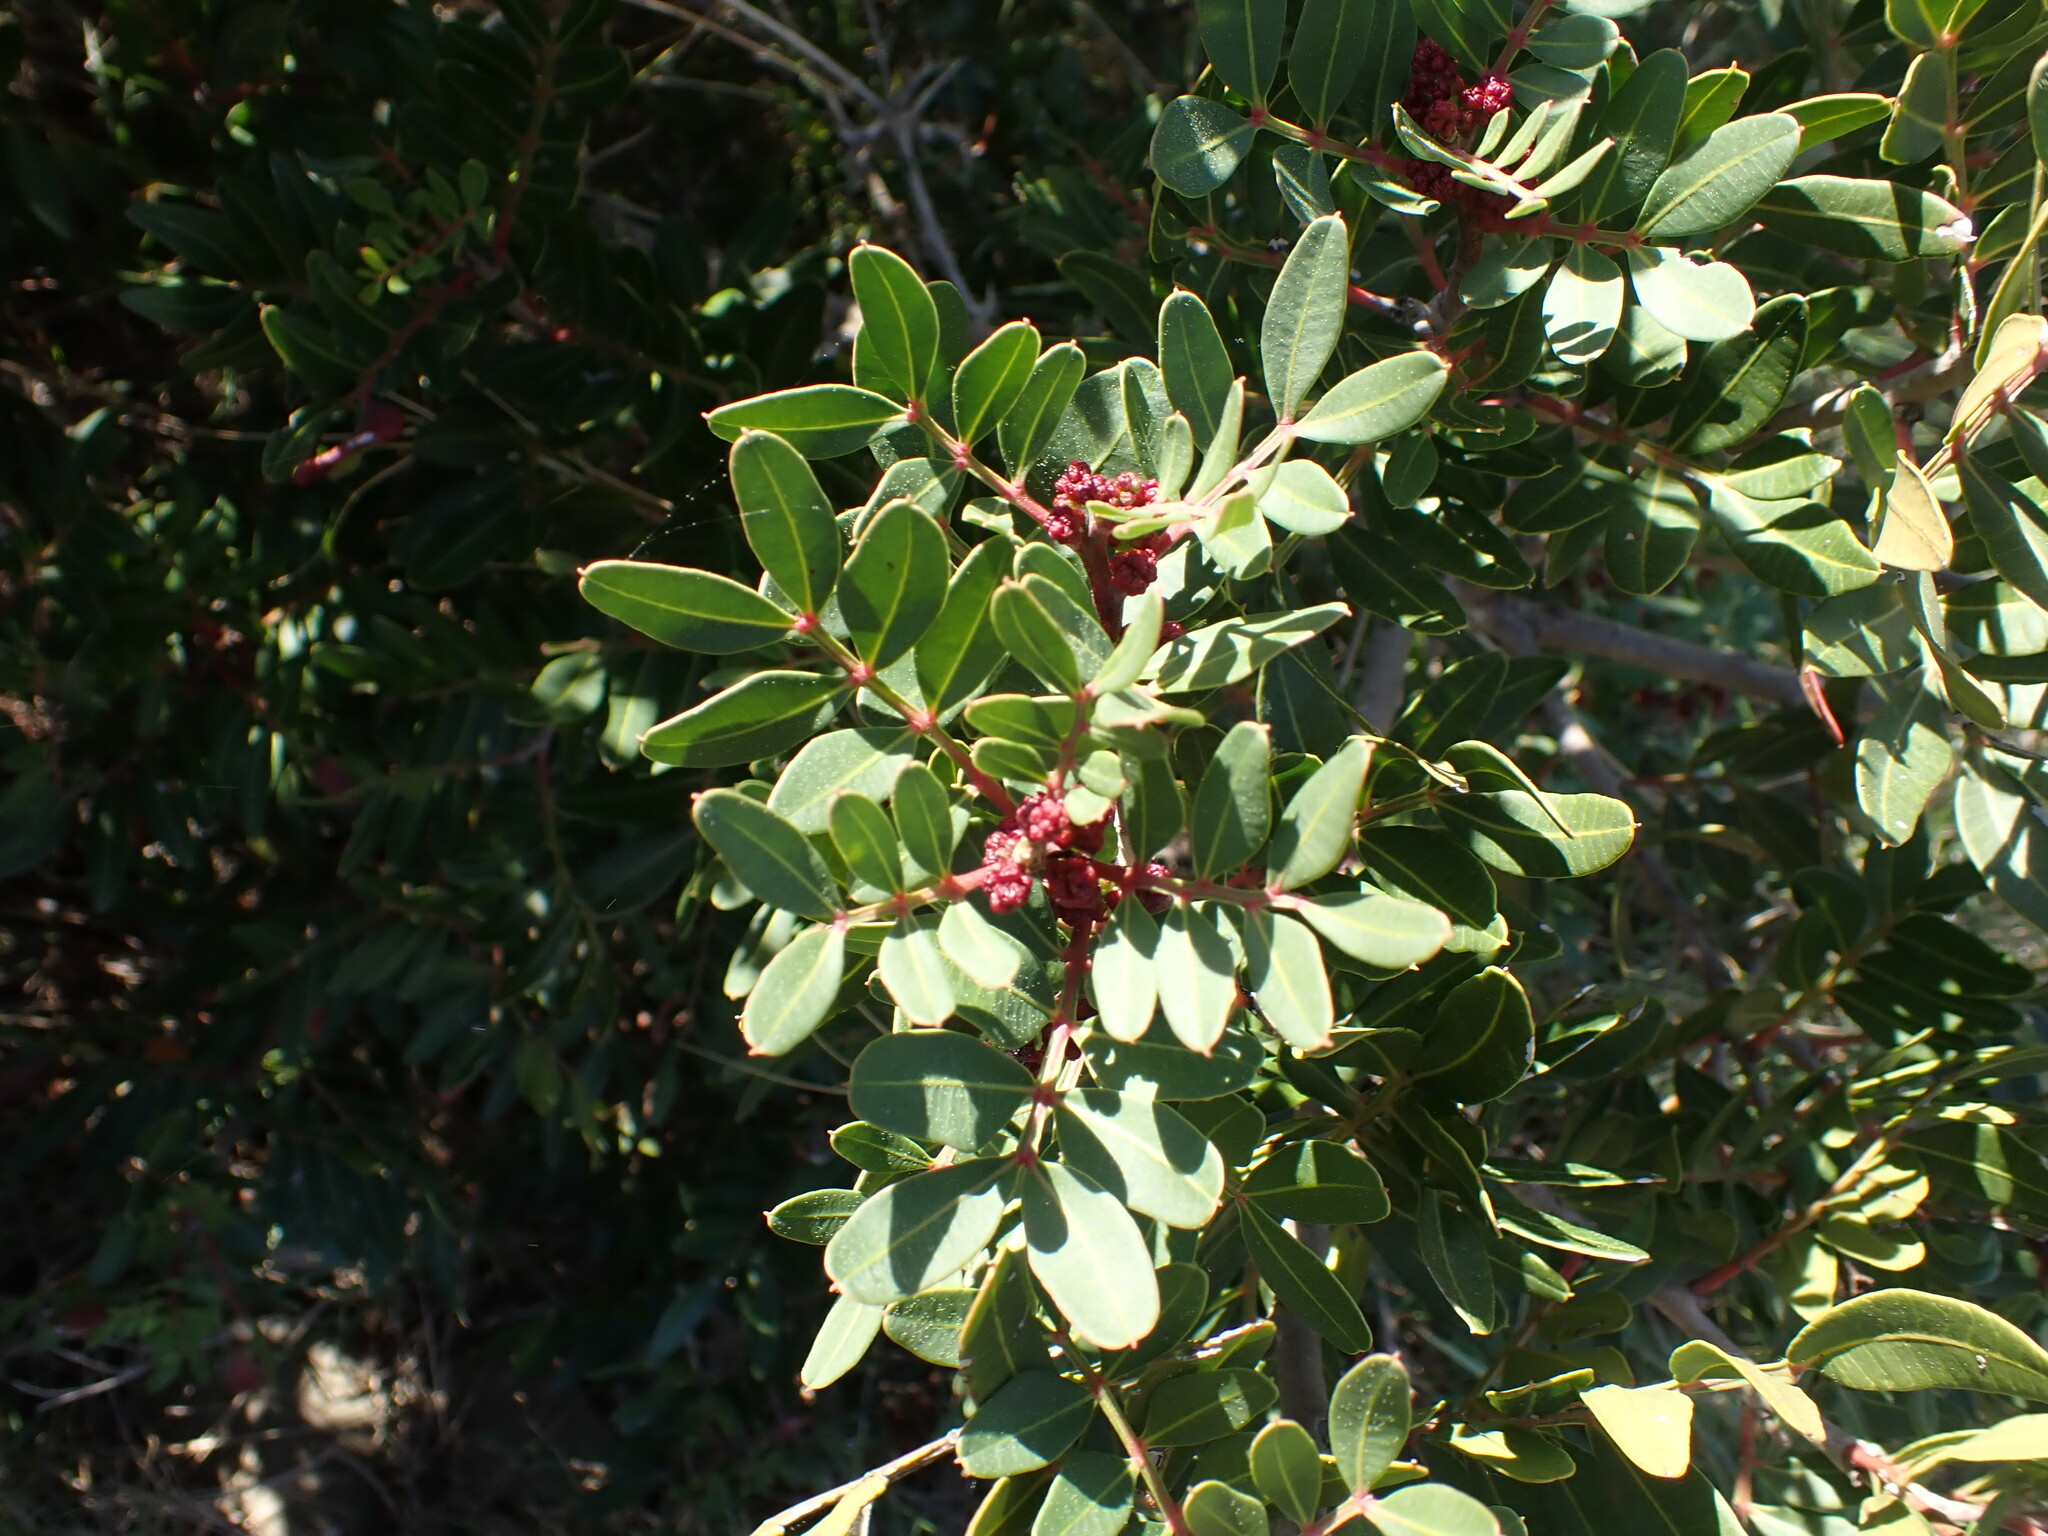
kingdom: Plantae
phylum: Tracheophyta
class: Magnoliopsida
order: Sapindales
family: Anacardiaceae
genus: Pistacia
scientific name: Pistacia lentiscus
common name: Lentisk
